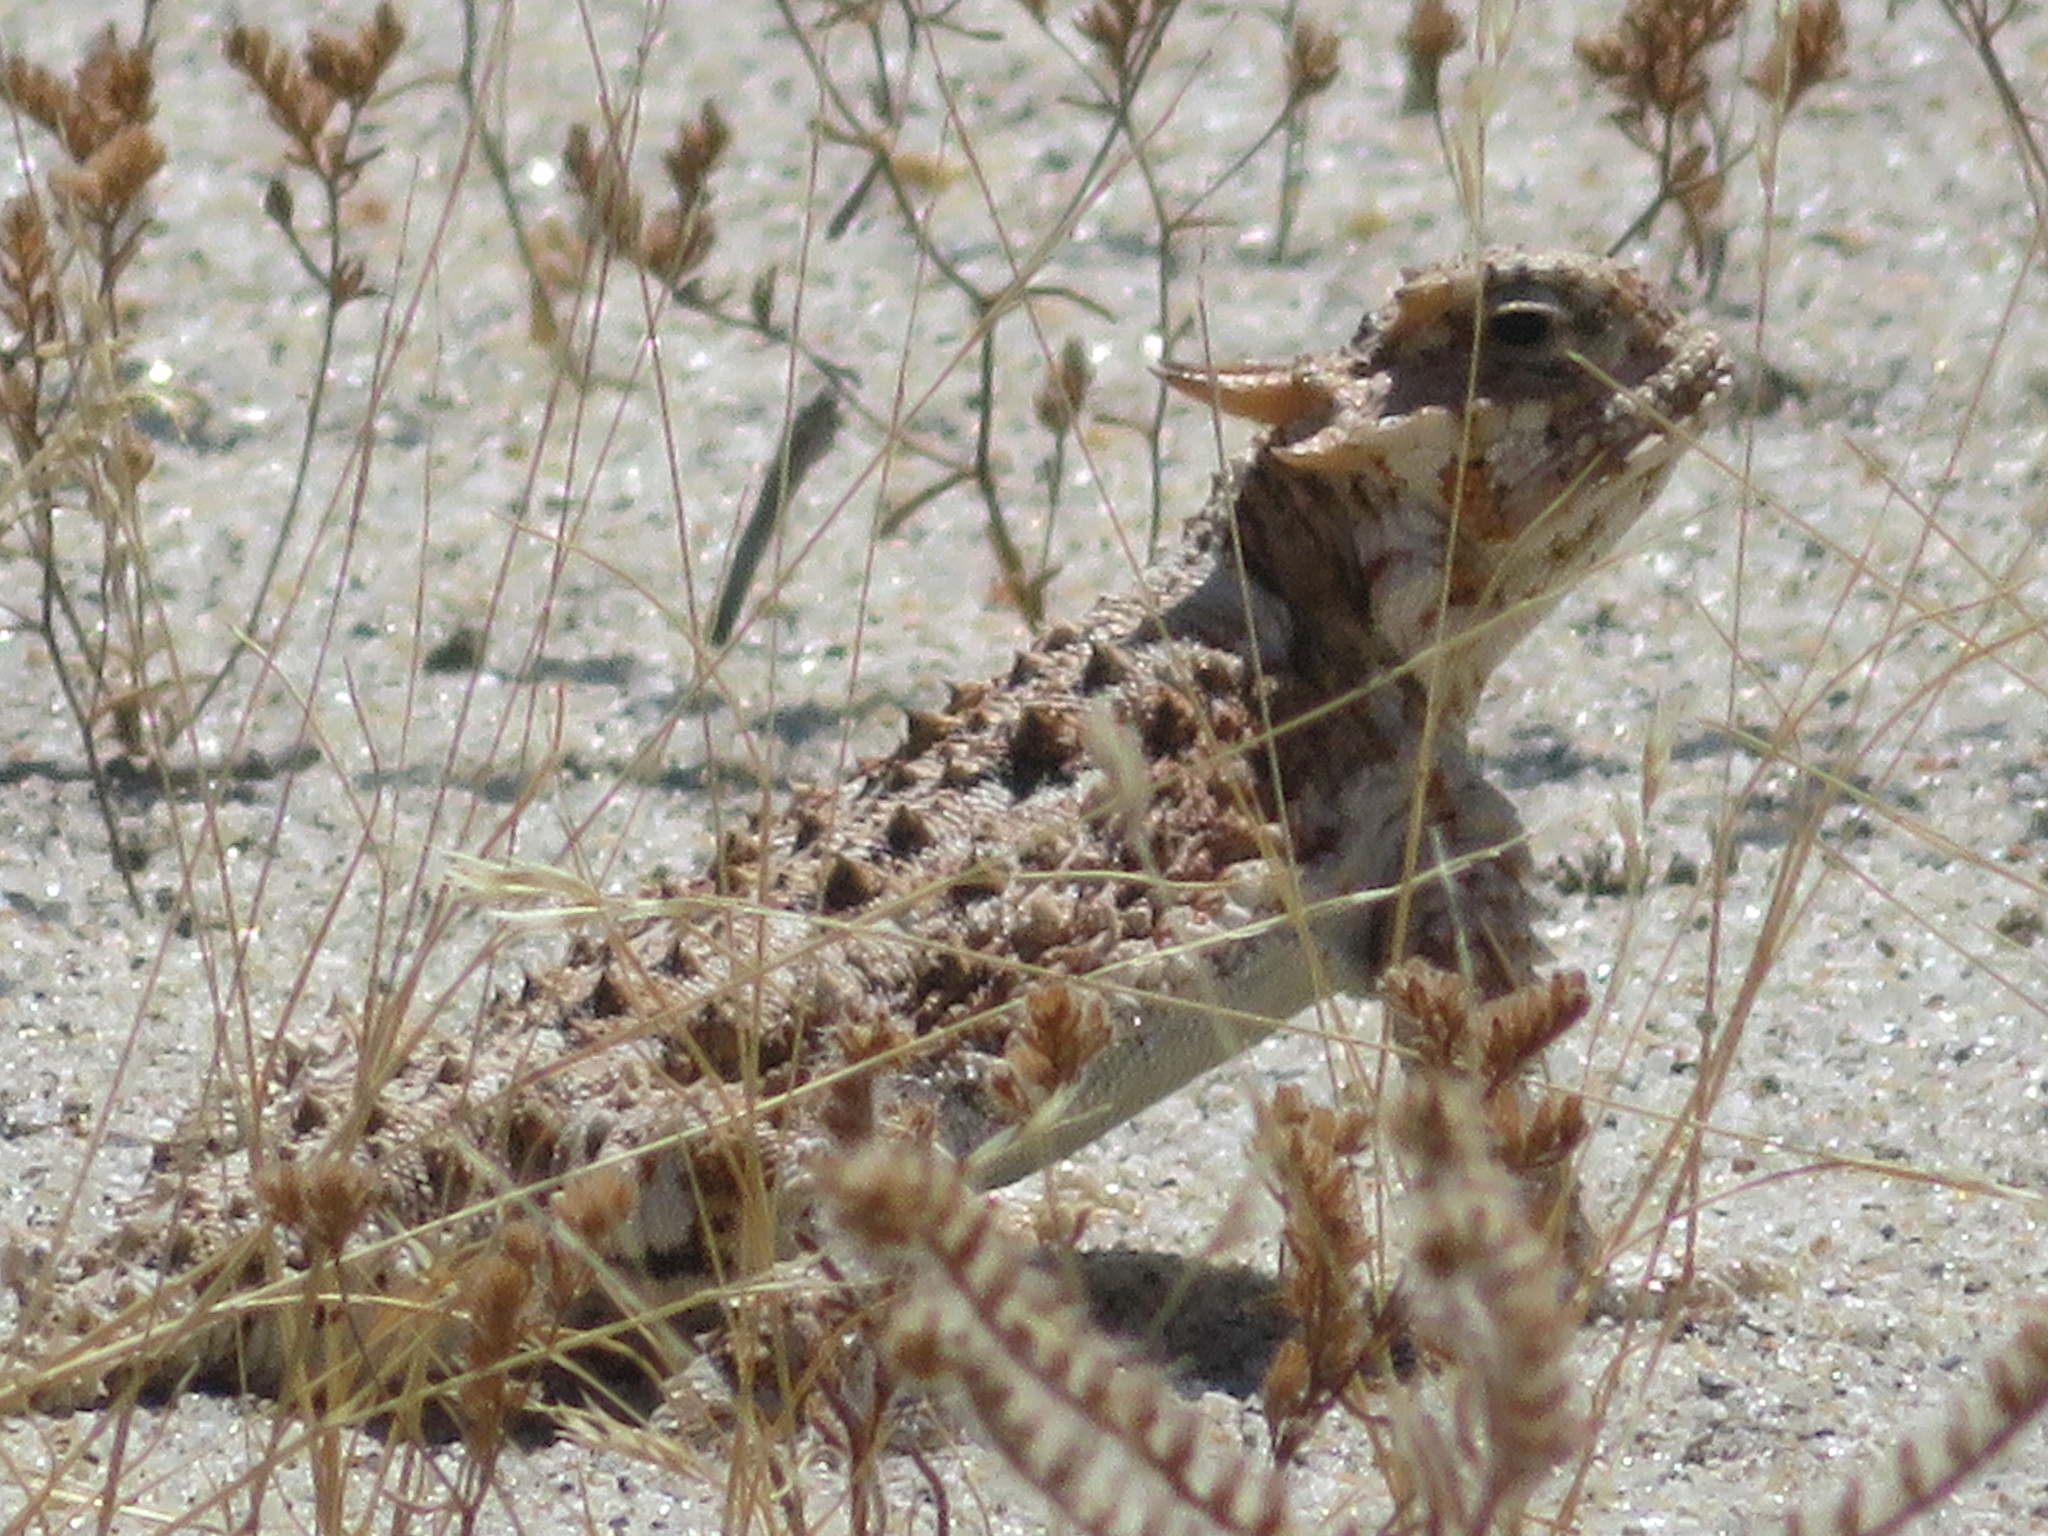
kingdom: Animalia
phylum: Chordata
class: Squamata
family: Phrynosomatidae
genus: Phrynosoma
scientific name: Phrynosoma platyrhinos
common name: Desert horned lizard
